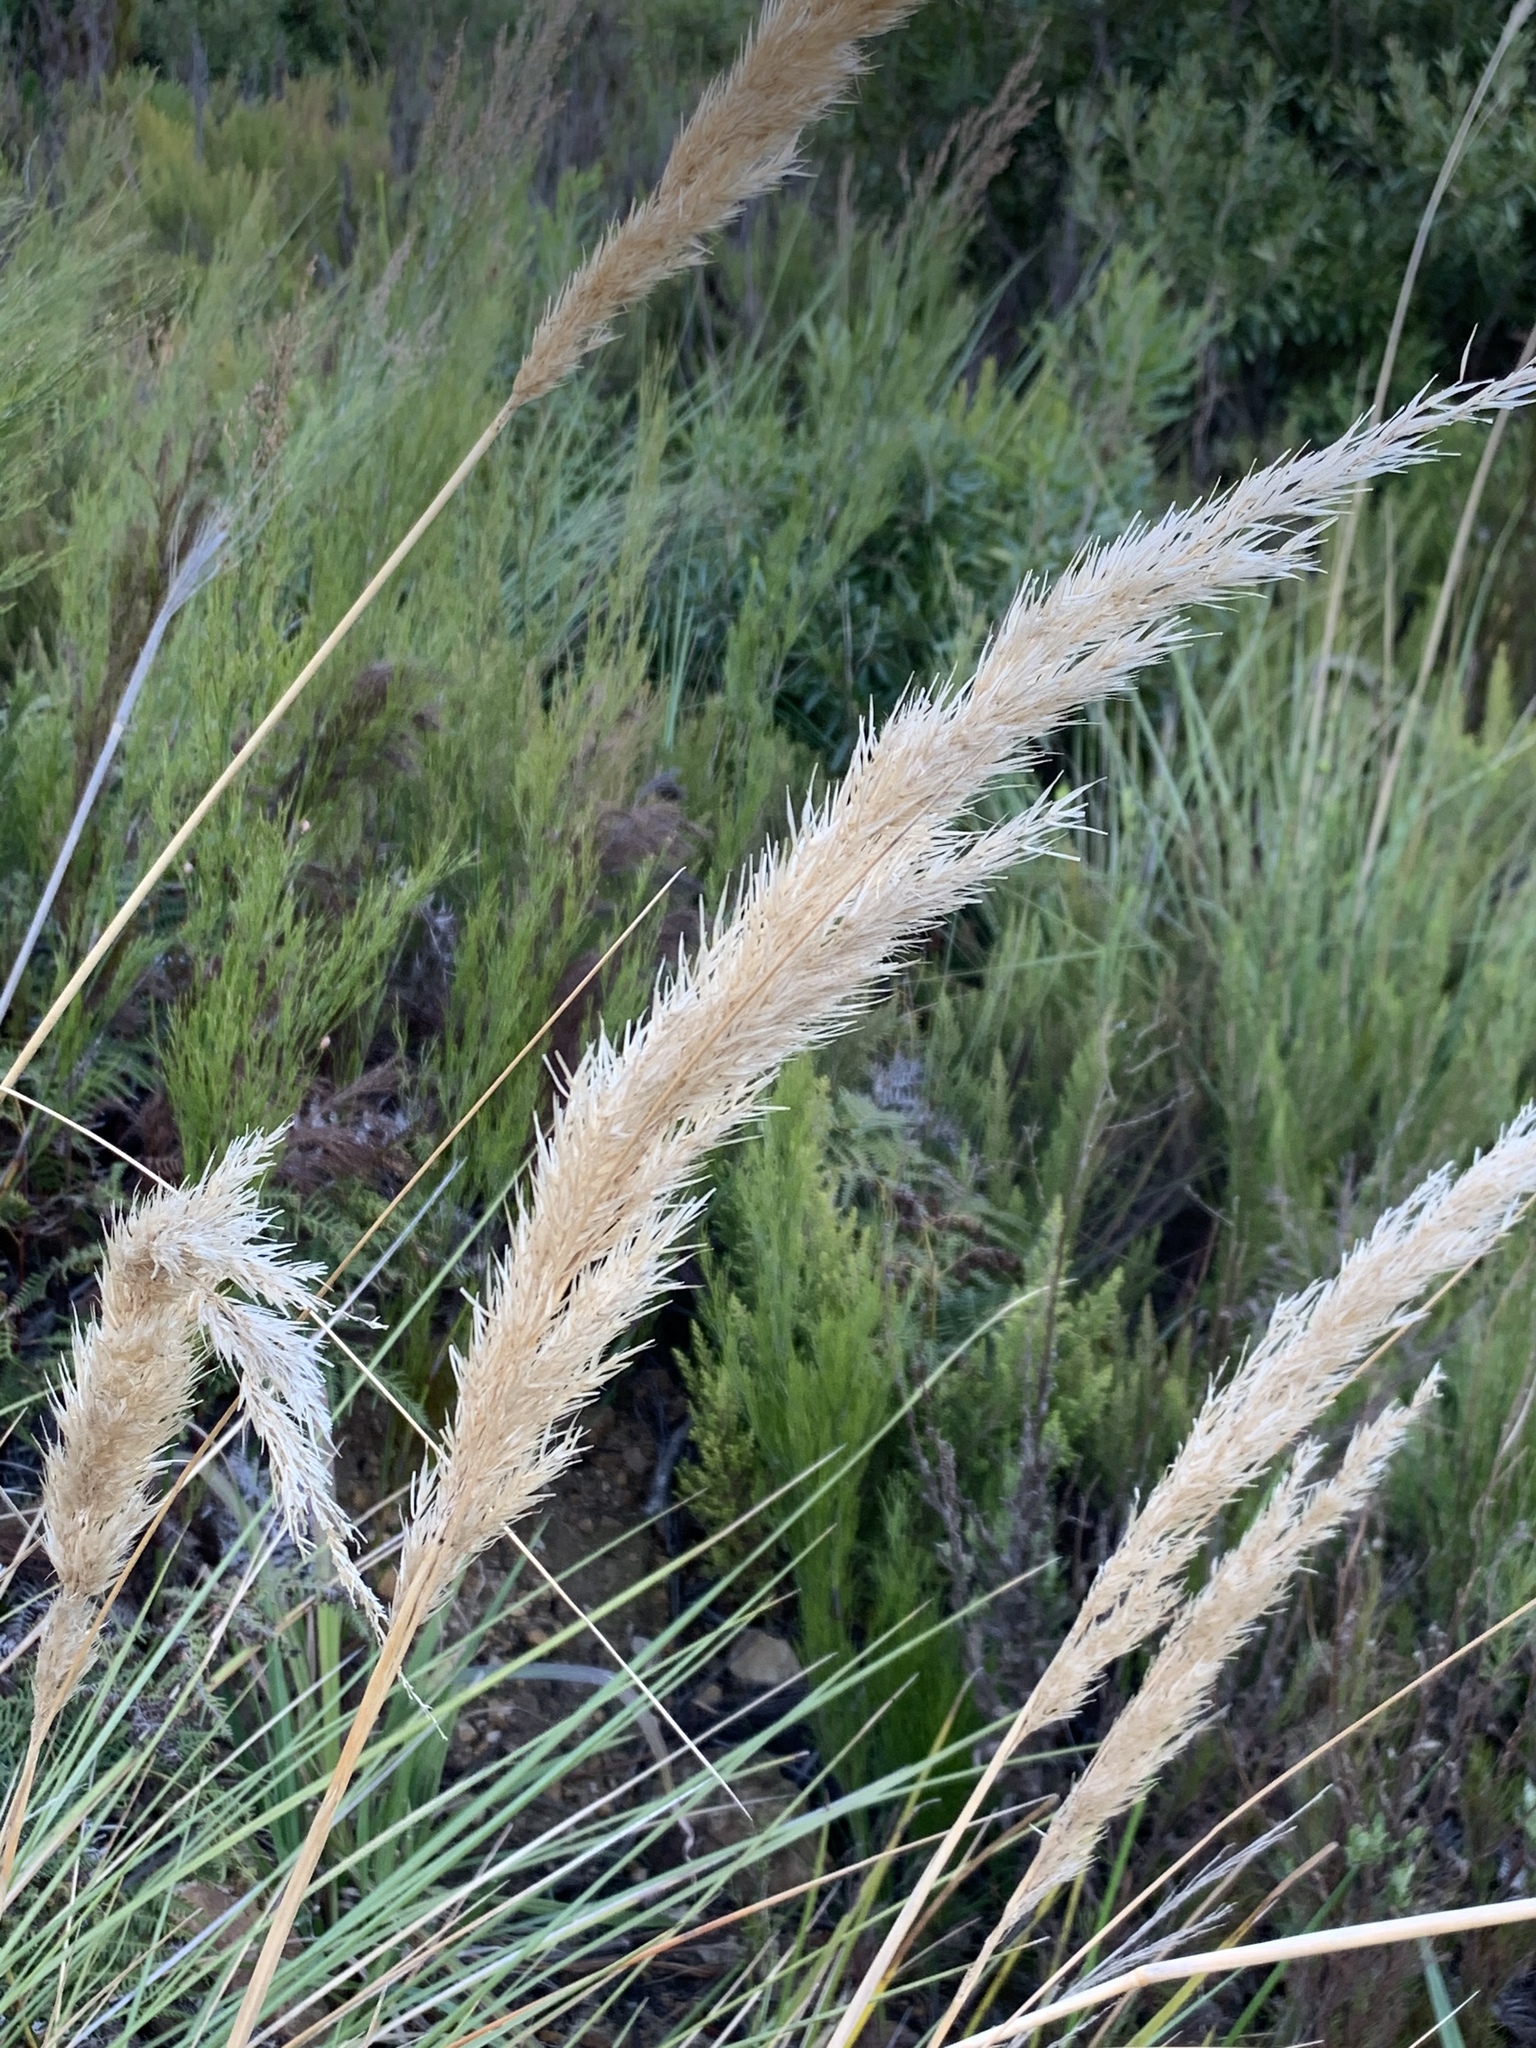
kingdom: Plantae
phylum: Tracheophyta
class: Liliopsida
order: Poales
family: Poaceae
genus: Capeochloa
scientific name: Capeochloa cincta
